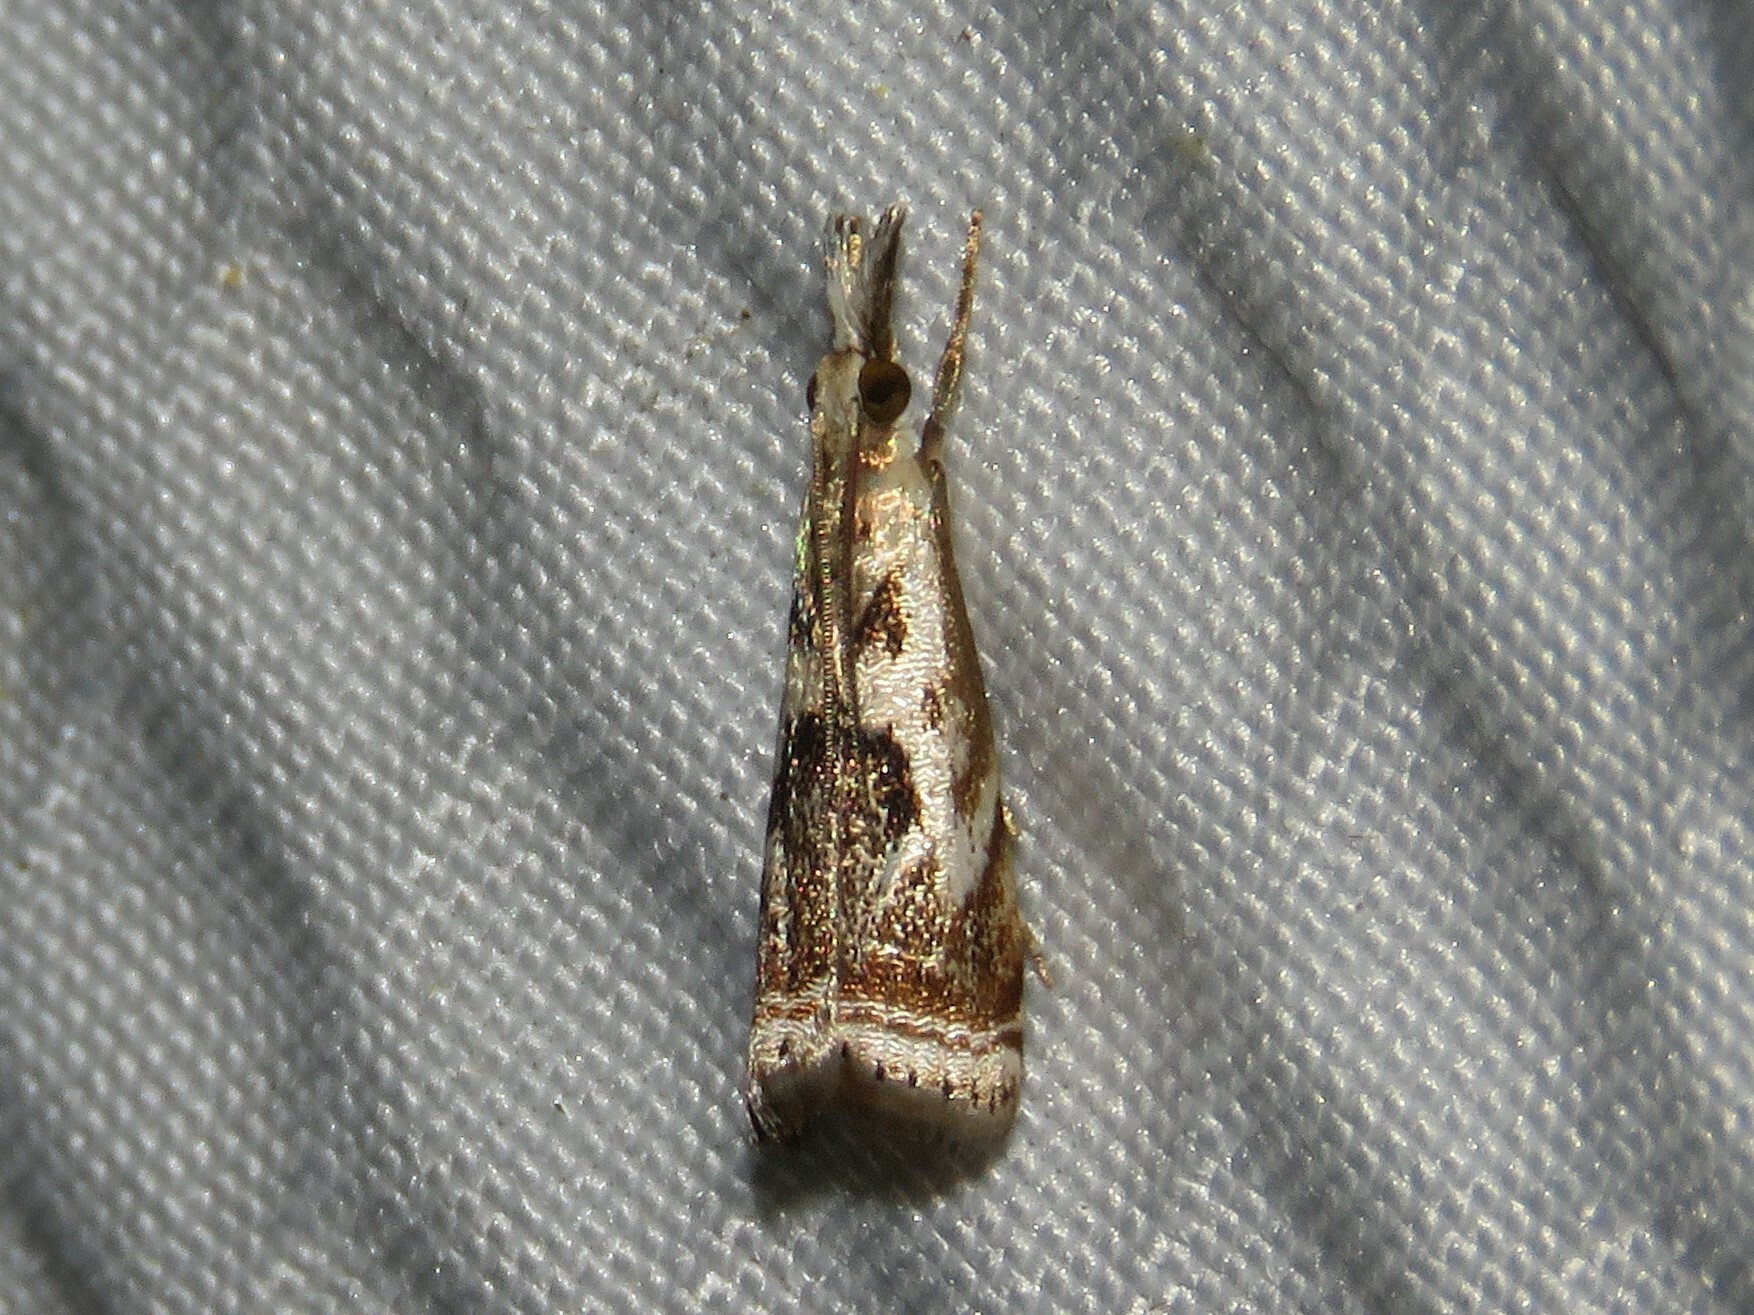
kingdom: Animalia
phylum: Arthropoda
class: Insecta
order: Lepidoptera
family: Crambidae
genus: Microcrambus
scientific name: Microcrambus elegans
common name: Elegant grass-veneer
